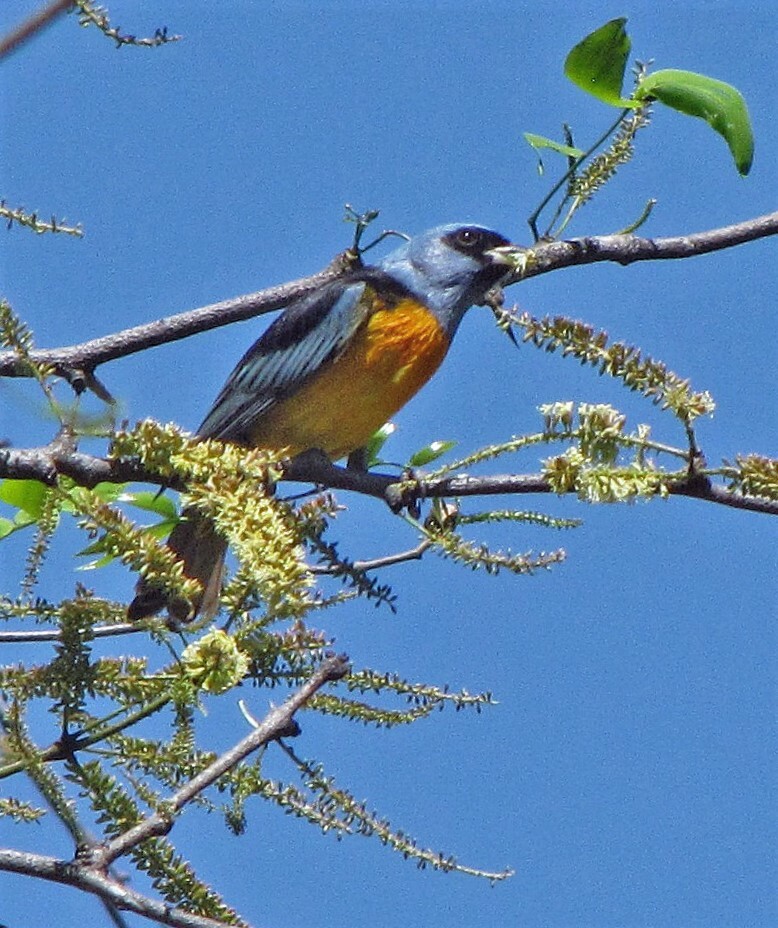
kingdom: Animalia
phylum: Chordata
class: Aves
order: Passeriformes
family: Thraupidae
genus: Rauenia
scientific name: Rauenia bonariensis
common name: Blue-and-yellow tanager
